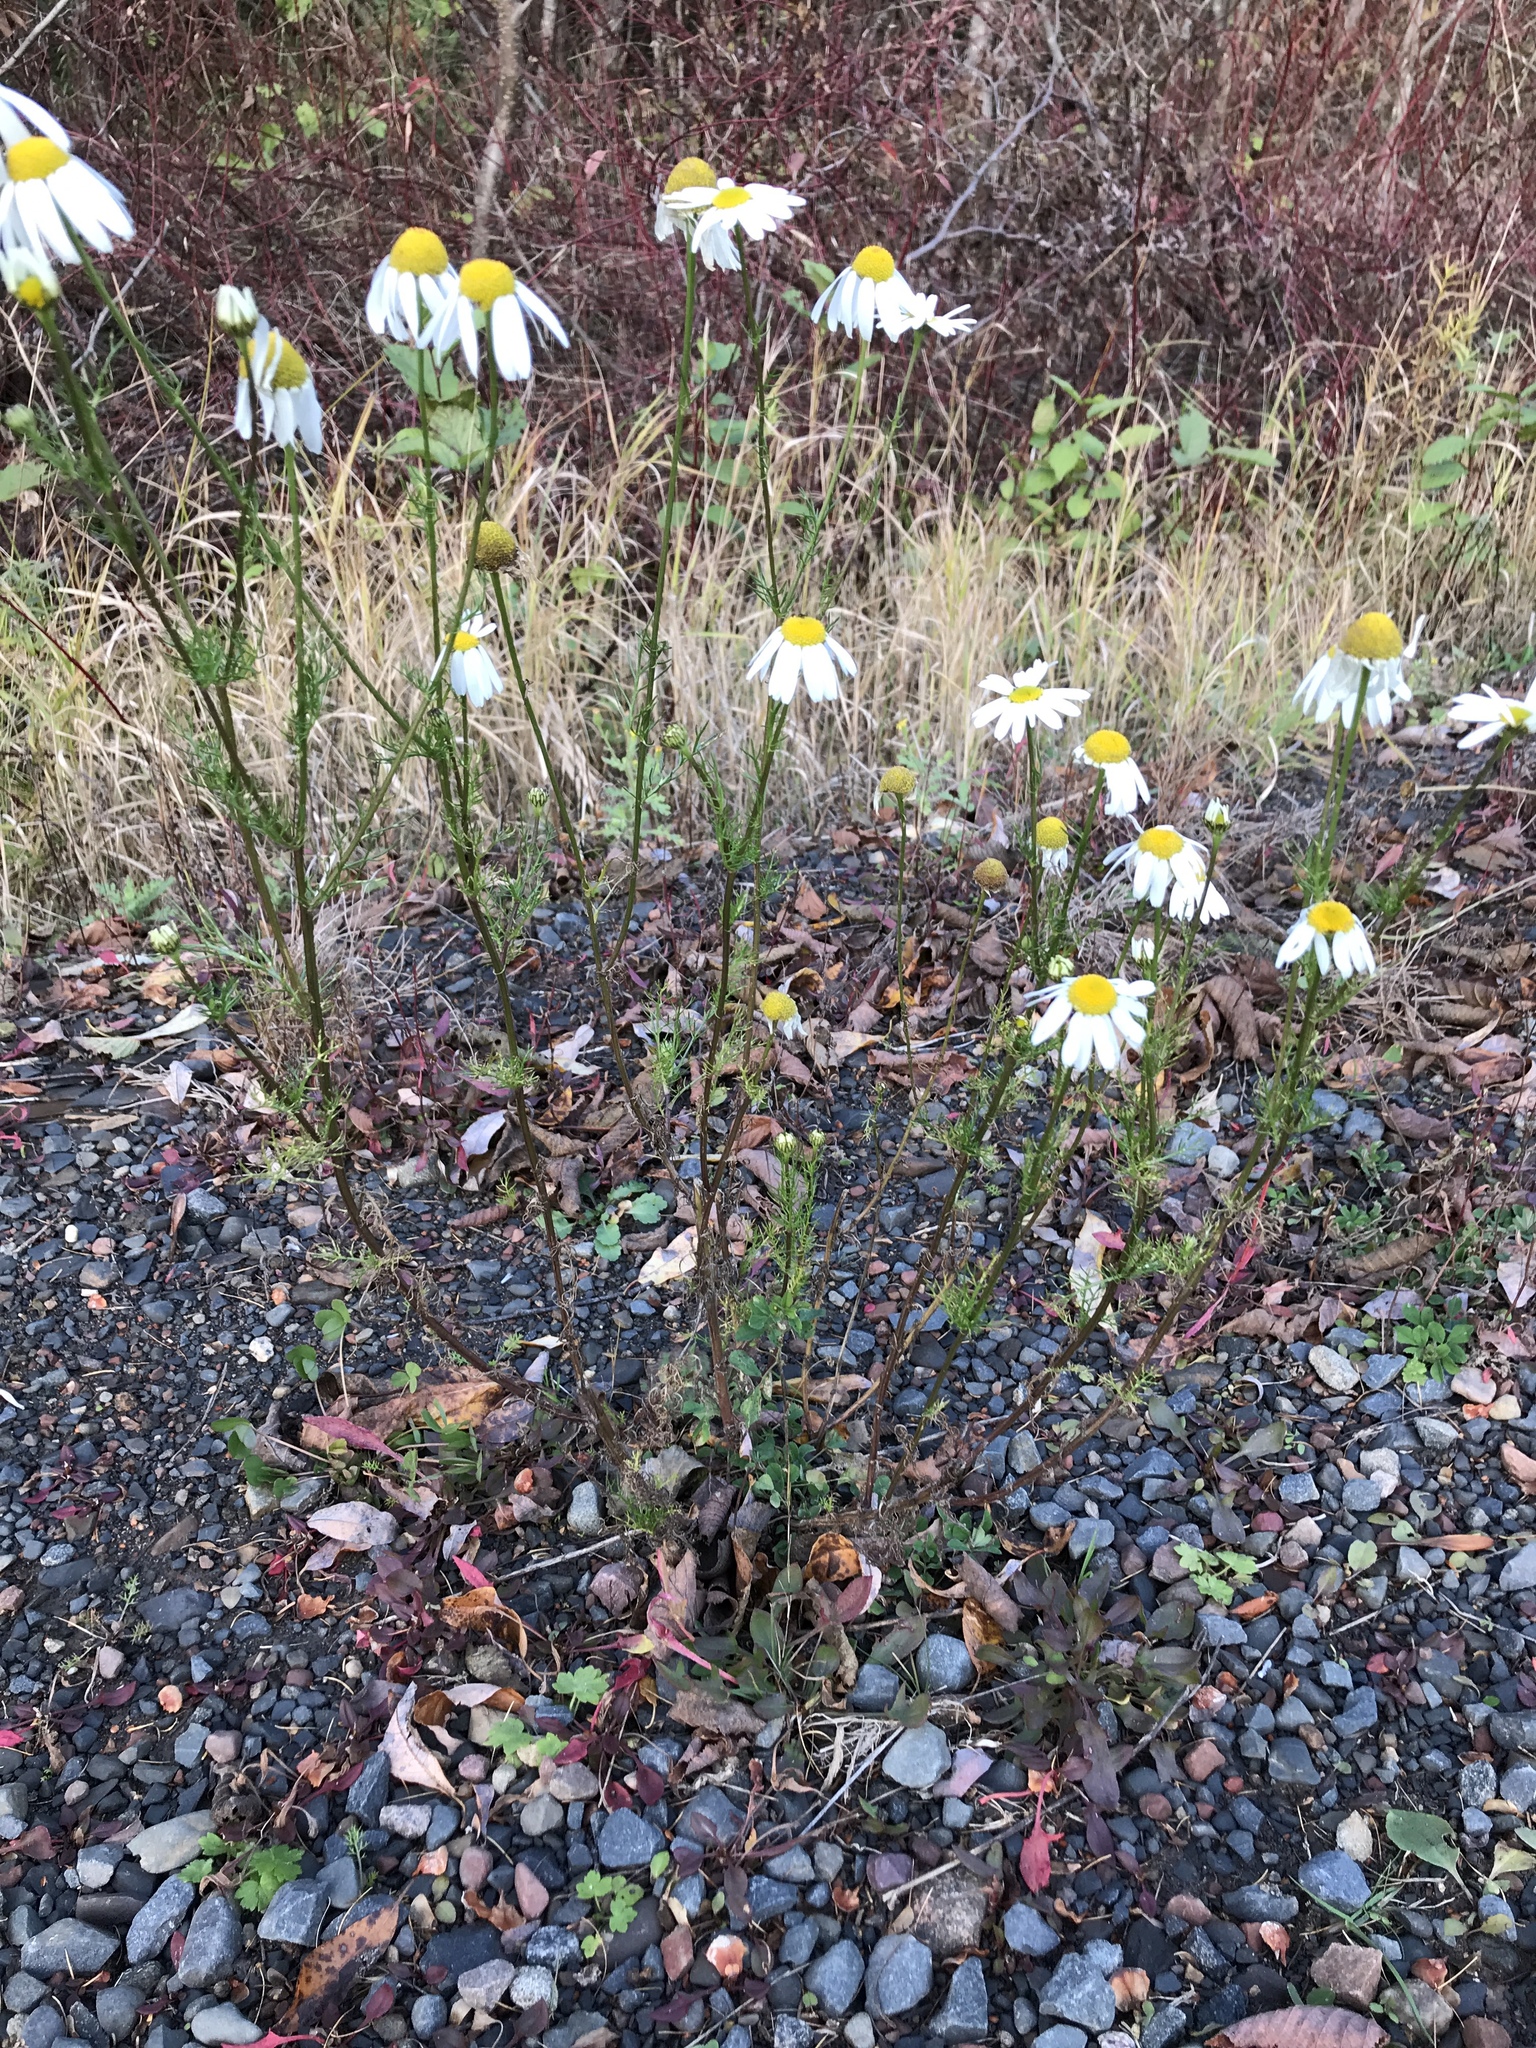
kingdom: Plantae
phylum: Tracheophyta
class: Magnoliopsida
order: Asterales
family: Asteraceae
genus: Tripleurospermum
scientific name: Tripleurospermum inodorum
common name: Scentless mayweed
